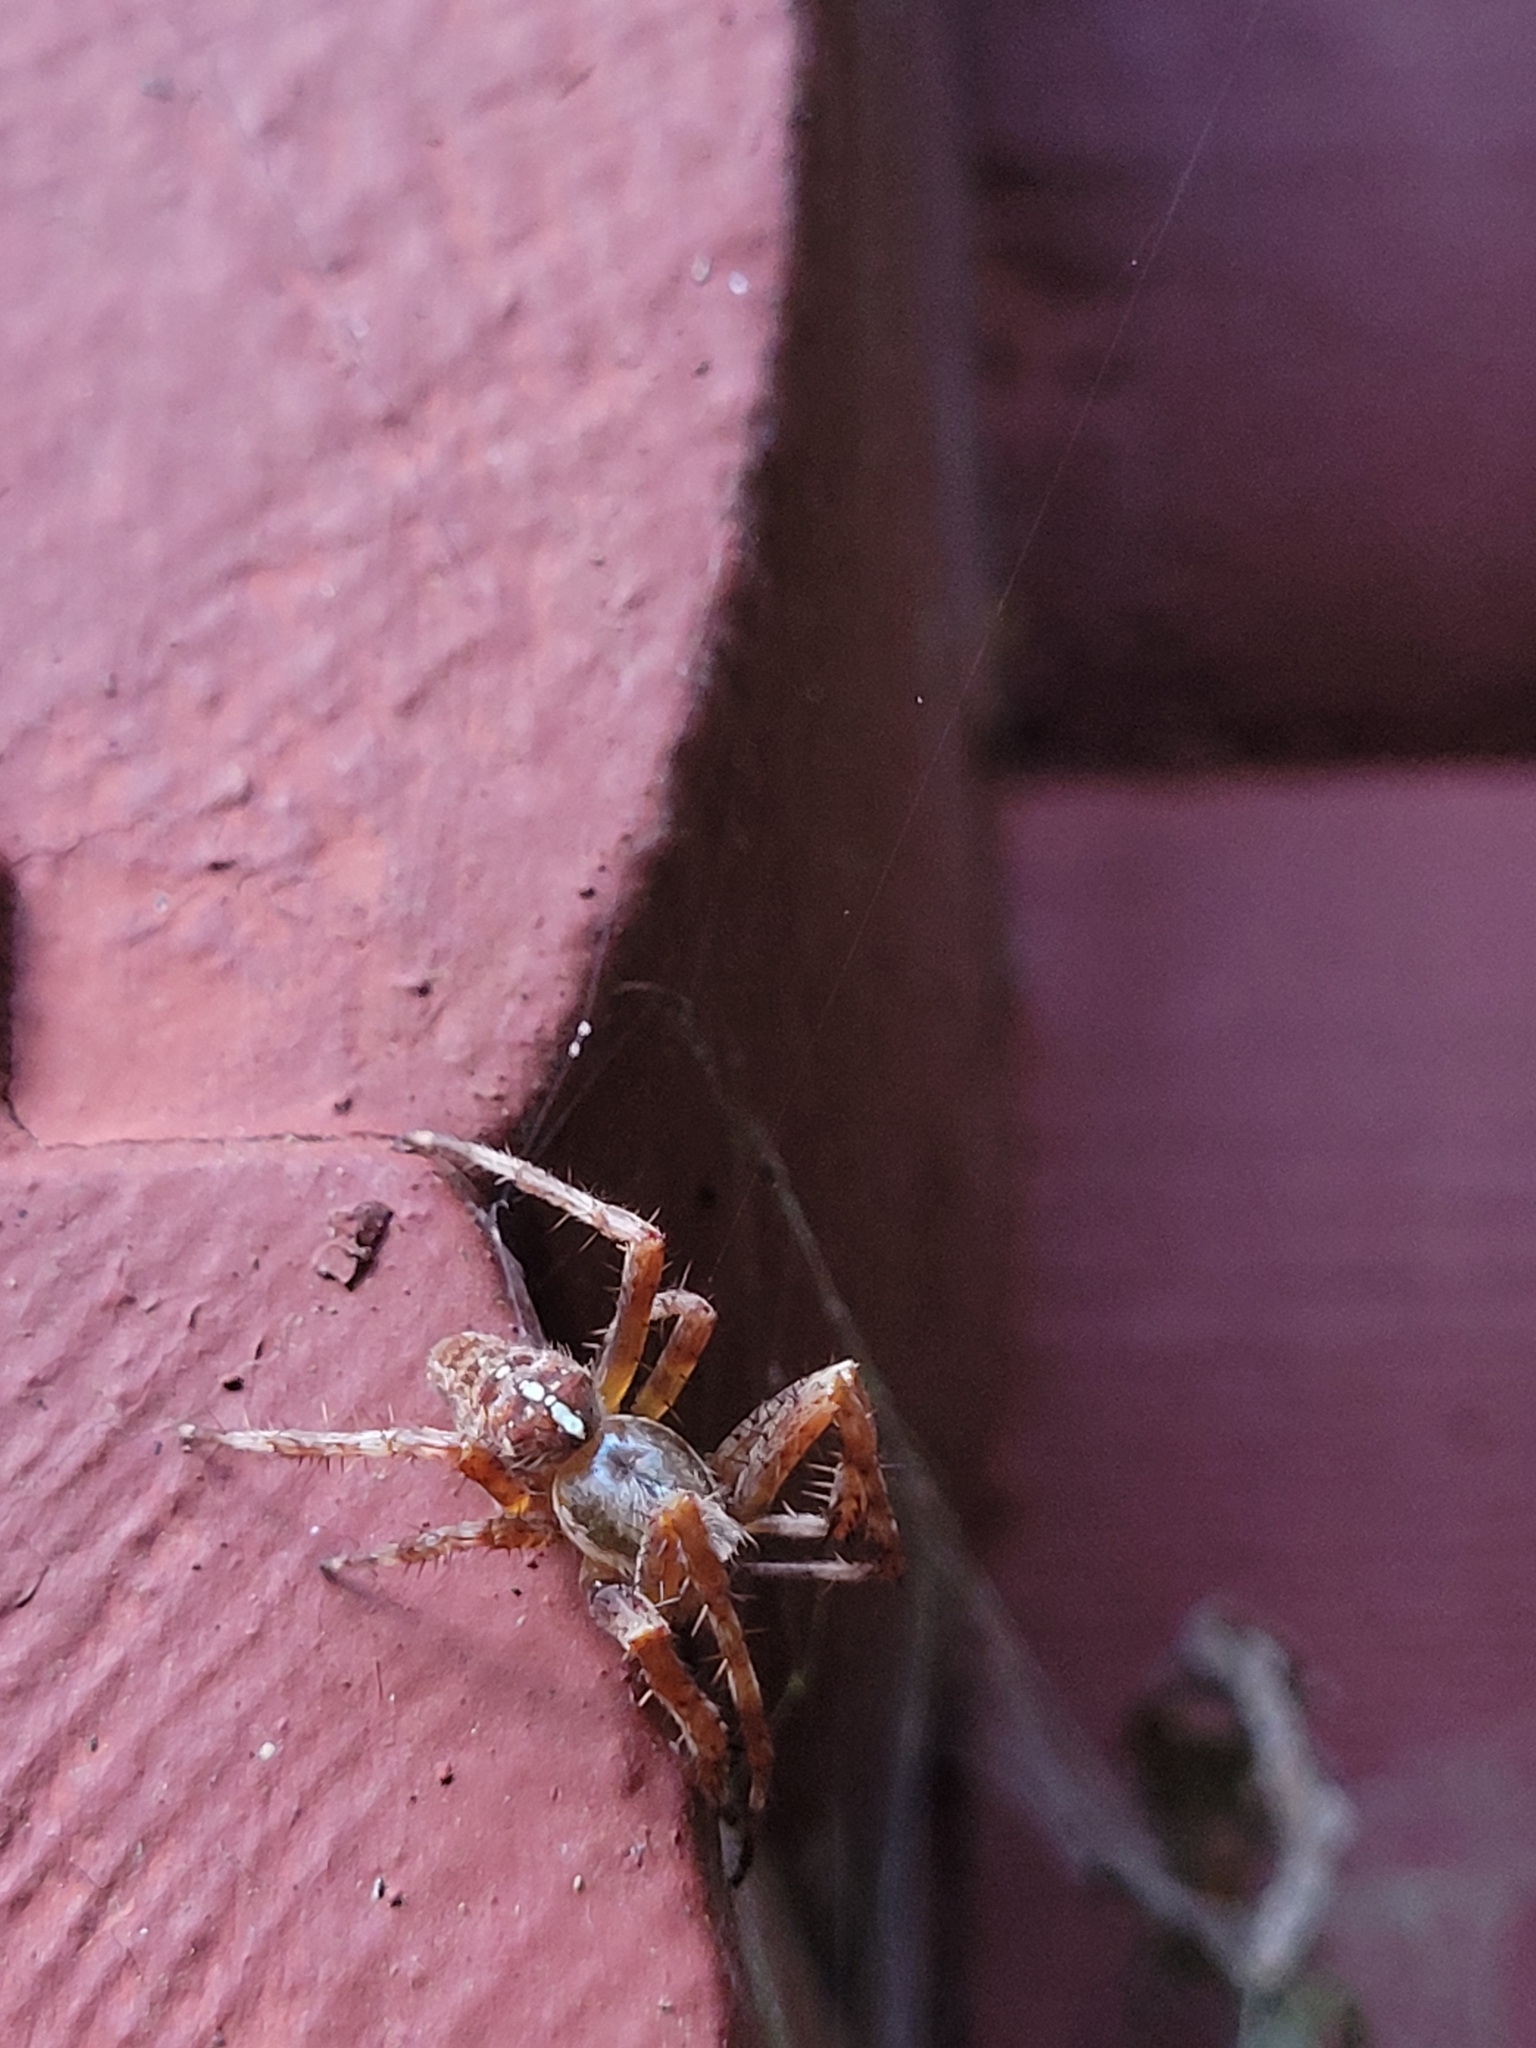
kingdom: Animalia
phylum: Arthropoda
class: Arachnida
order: Araneae
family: Araneidae
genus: Araneus
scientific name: Araneus diadematus
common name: Cross orbweaver
